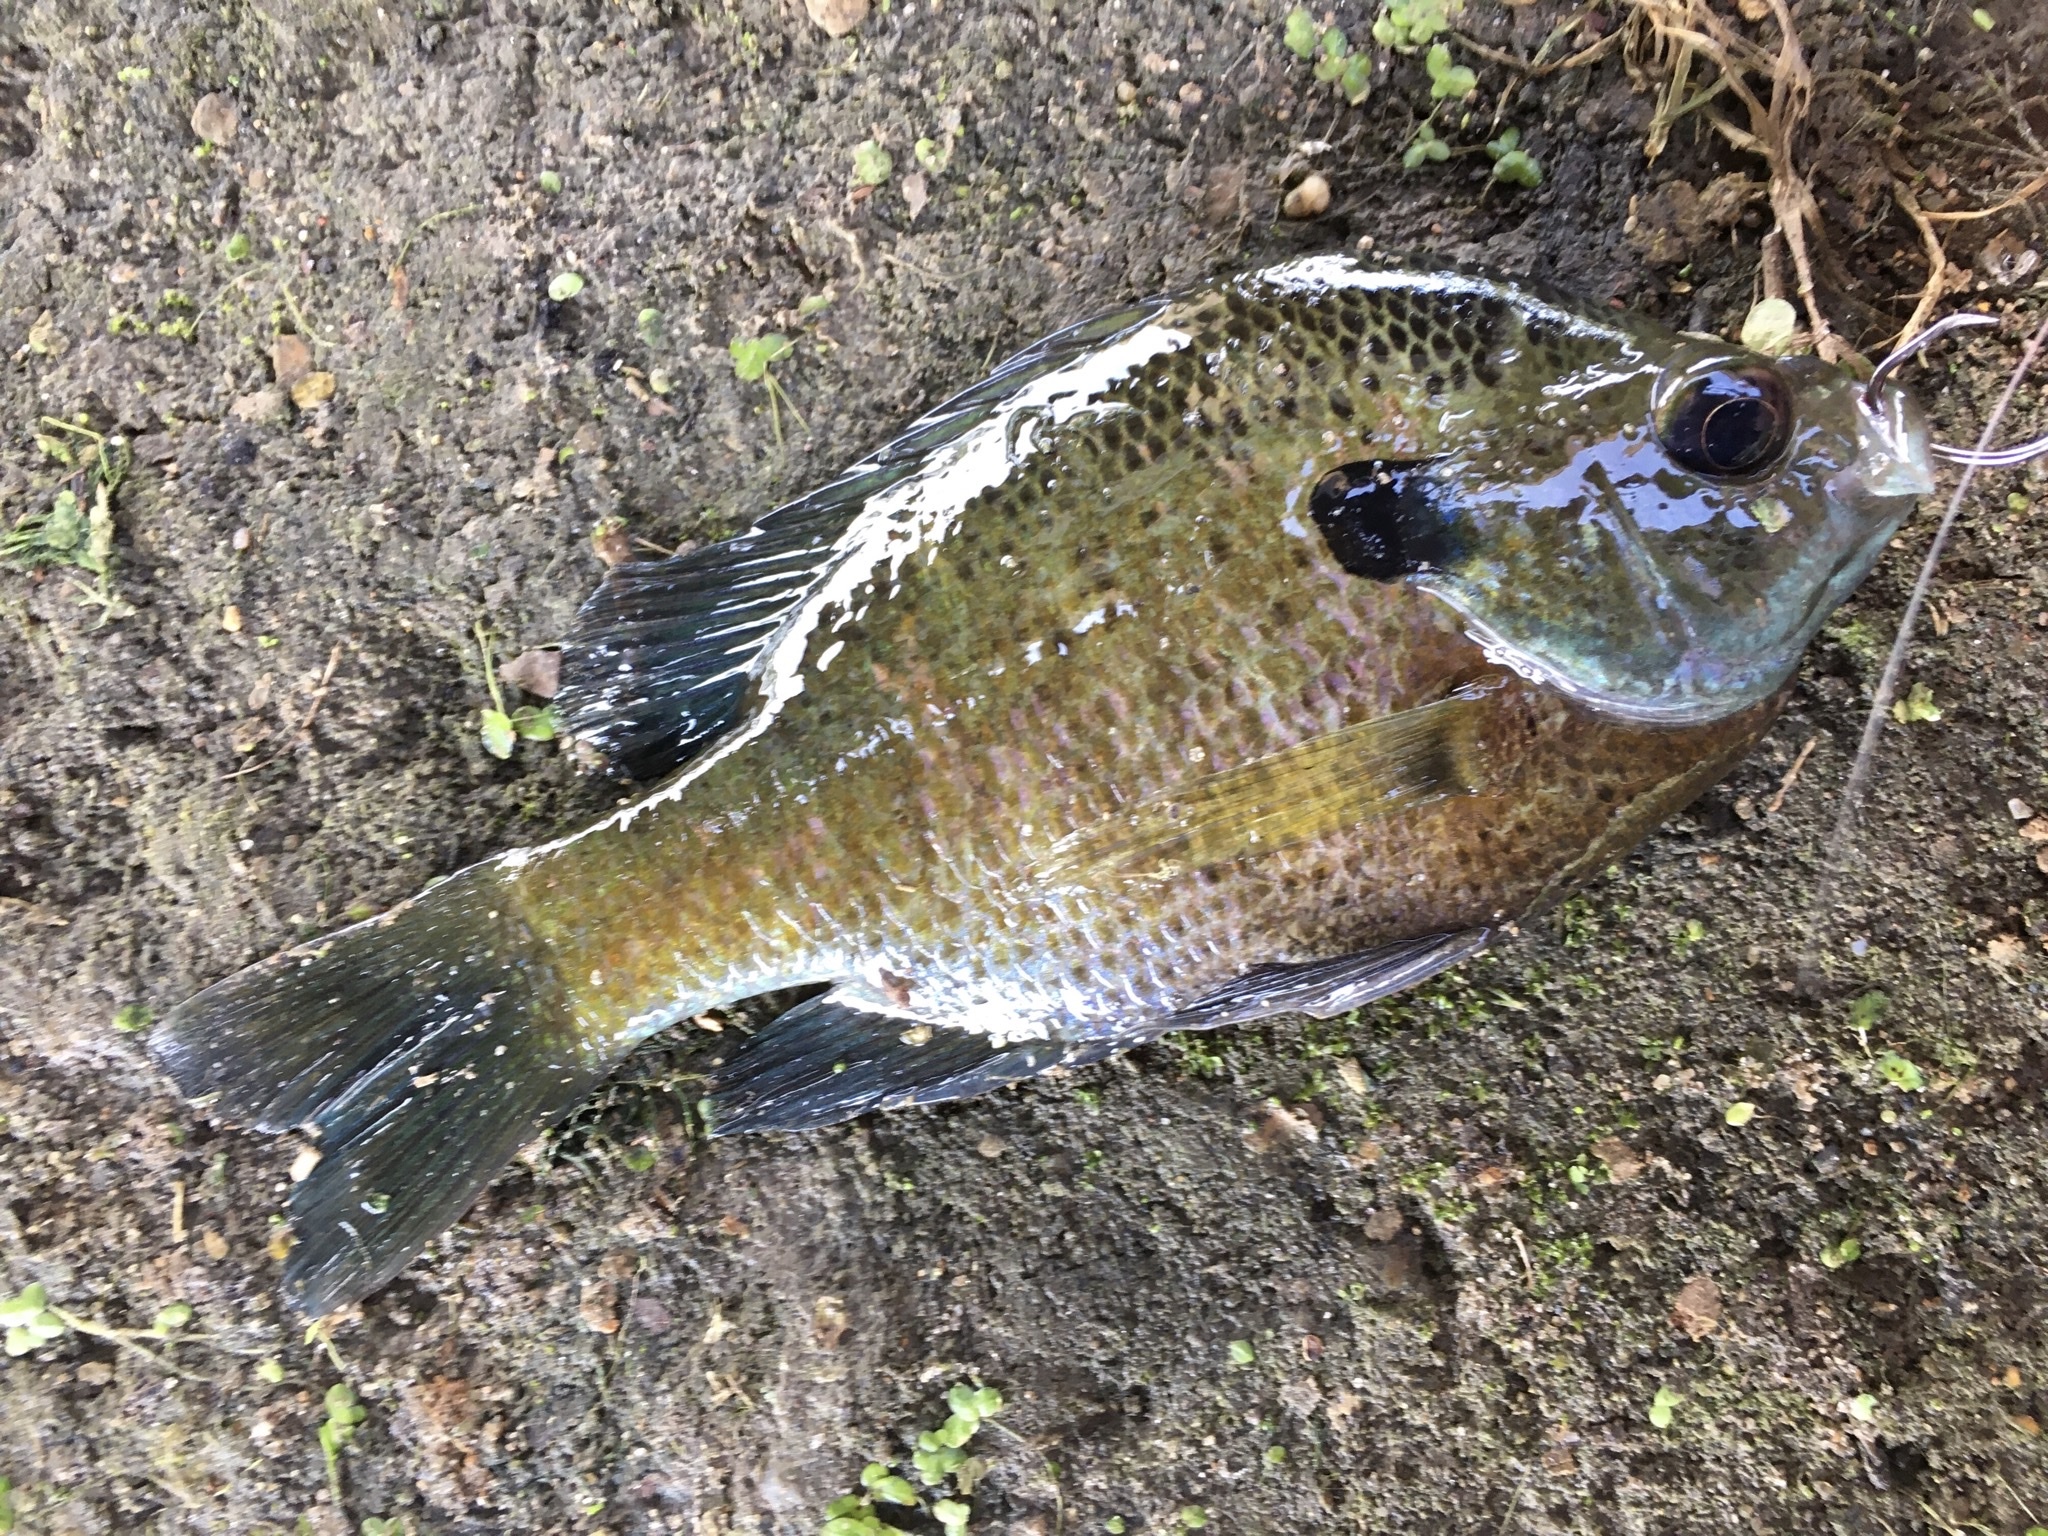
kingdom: Animalia
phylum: Chordata
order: Perciformes
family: Centrarchidae
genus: Lepomis
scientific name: Lepomis macrochirus
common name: Bluegill
